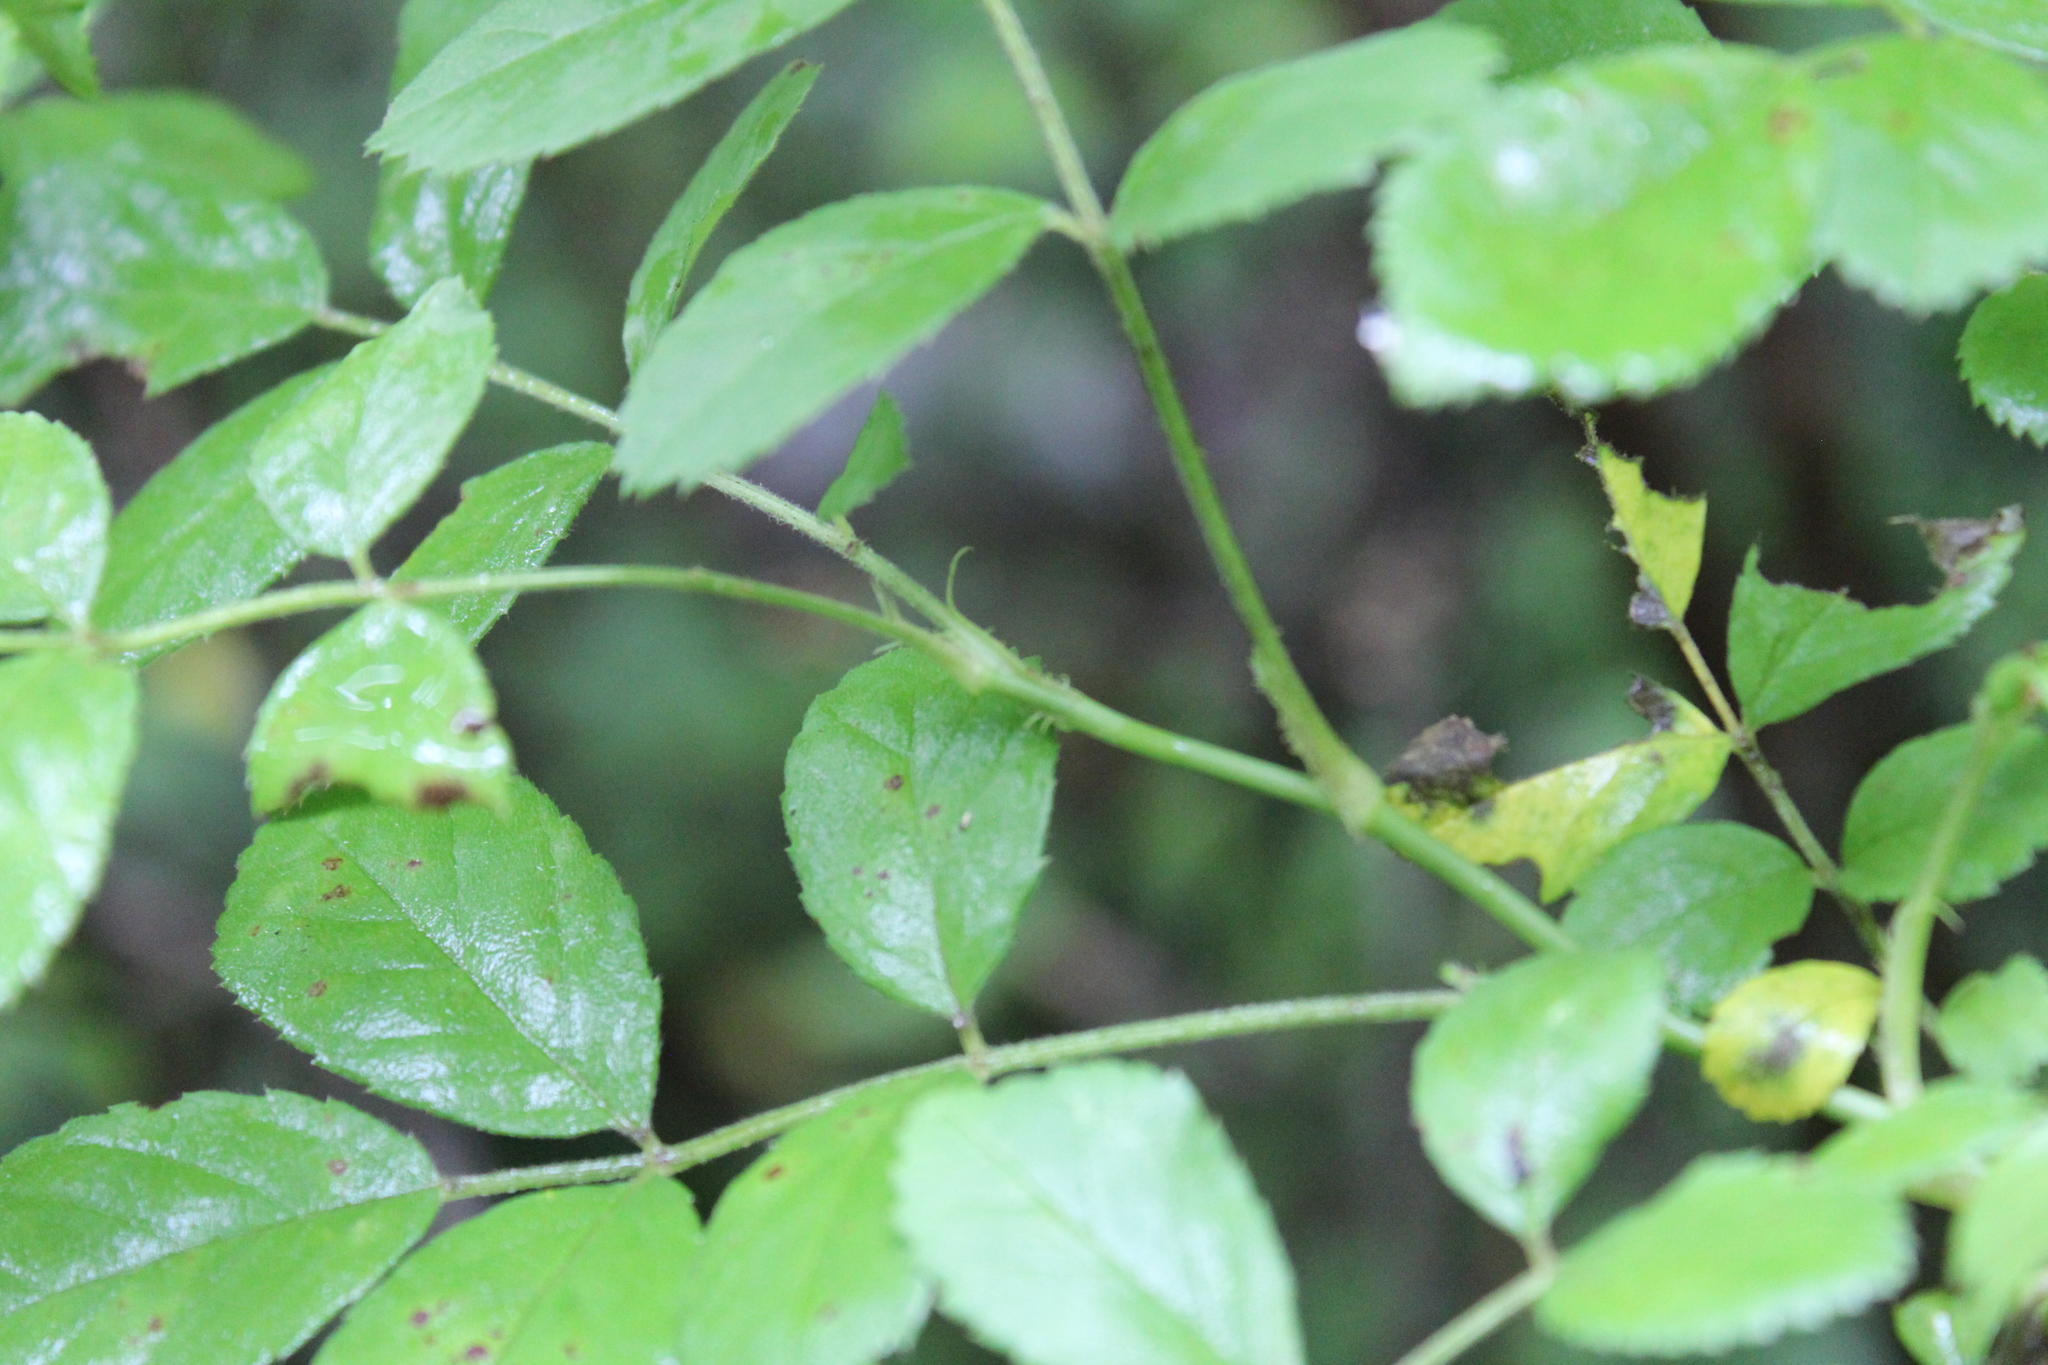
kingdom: Plantae
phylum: Tracheophyta
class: Magnoliopsida
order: Rosales
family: Rosaceae
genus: Rosa
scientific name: Rosa multiflora
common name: Multiflora rose
